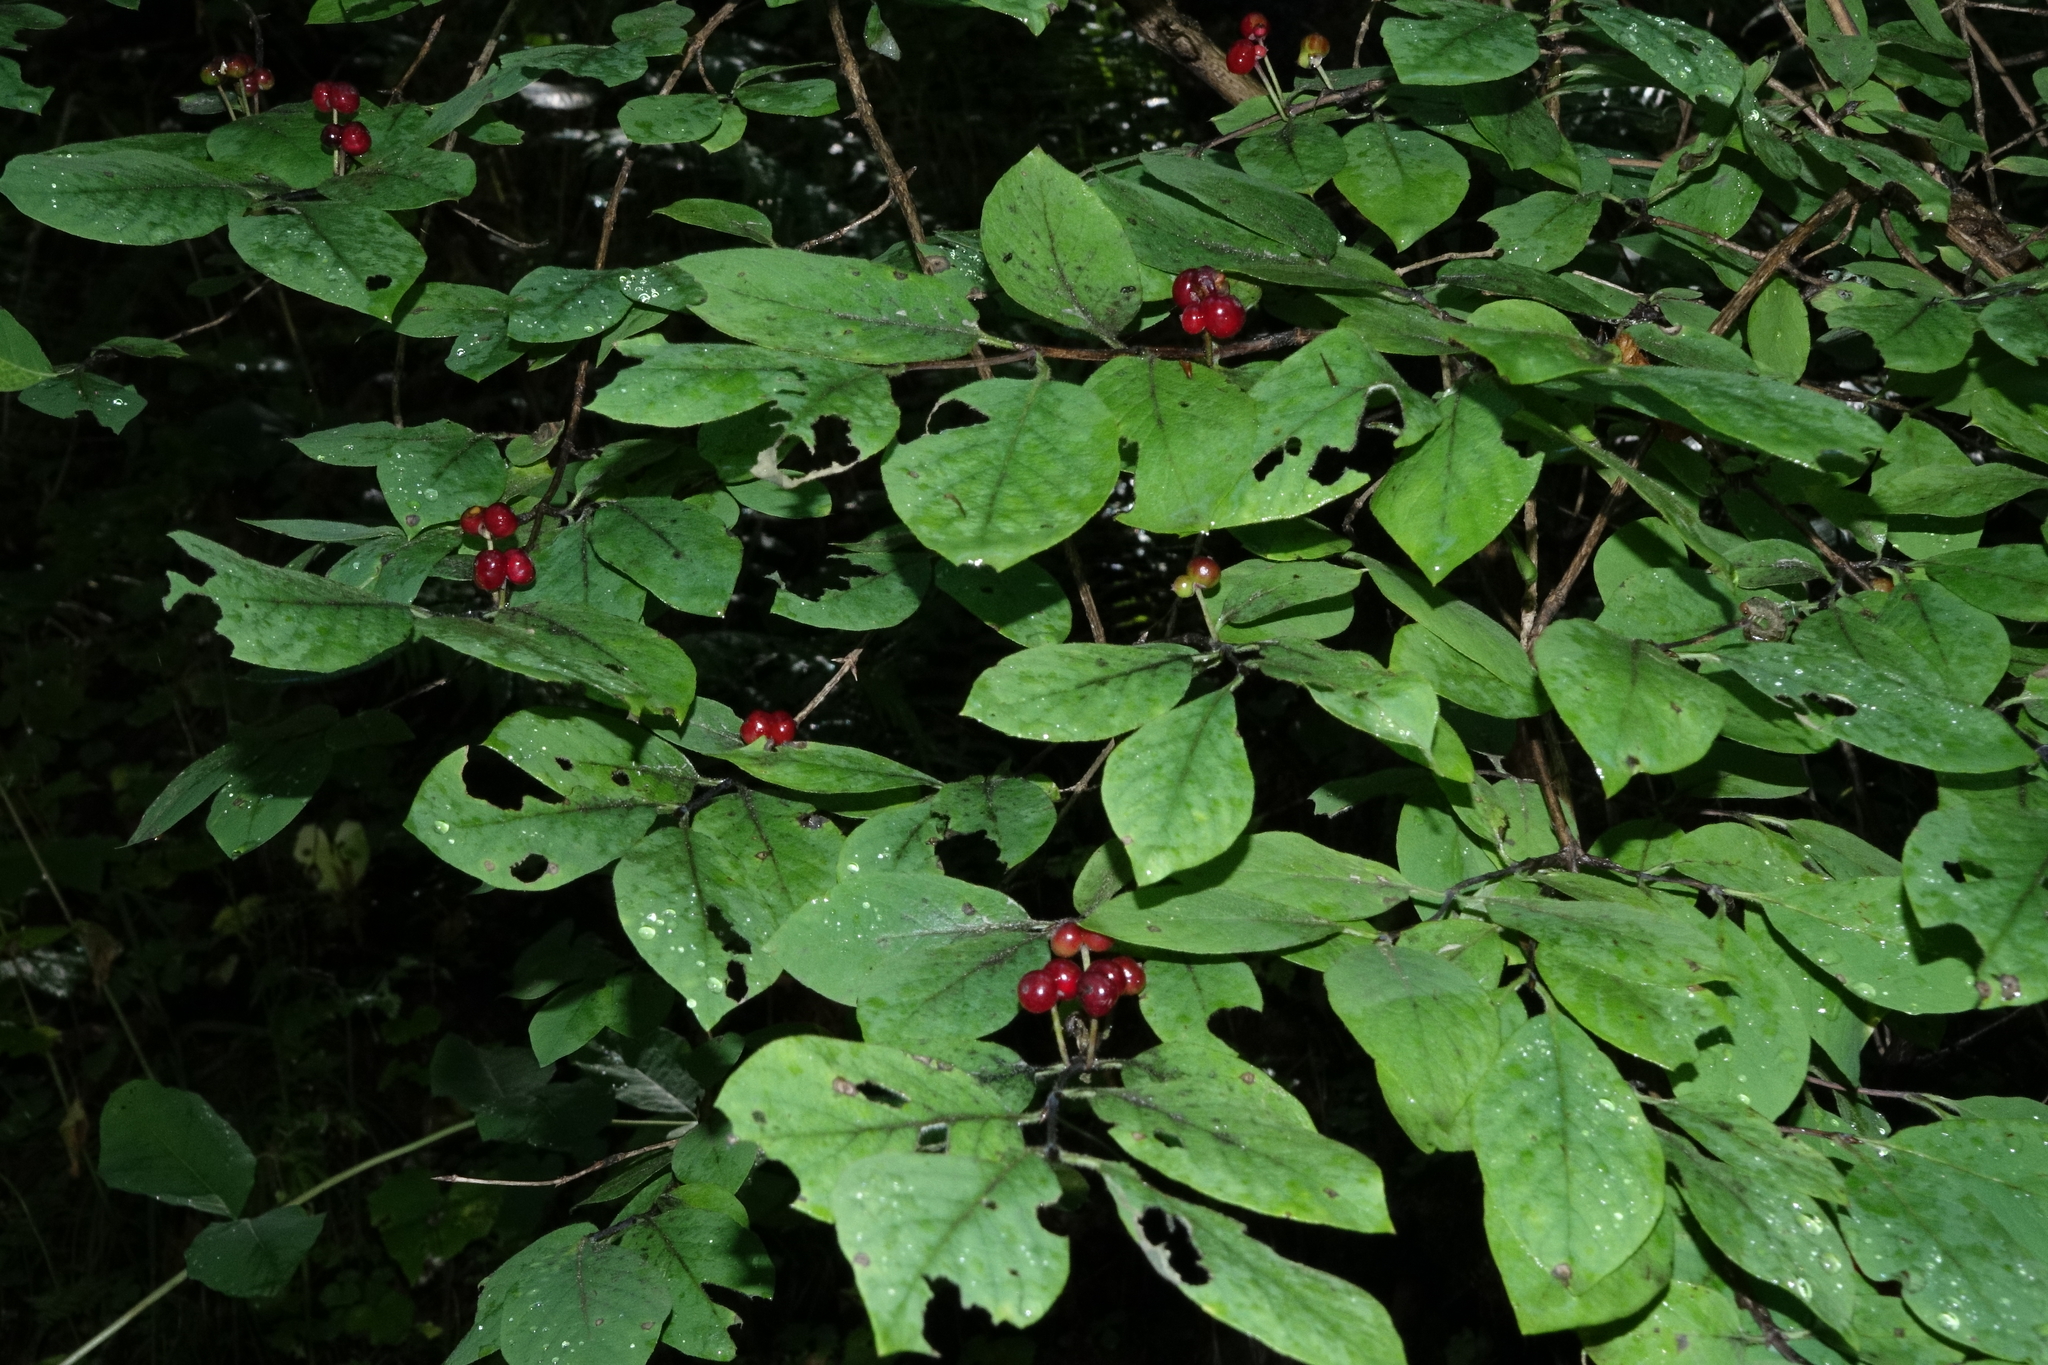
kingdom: Plantae
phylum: Tracheophyta
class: Magnoliopsida
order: Dipsacales
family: Caprifoliaceae
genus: Lonicera
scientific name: Lonicera steveniana
